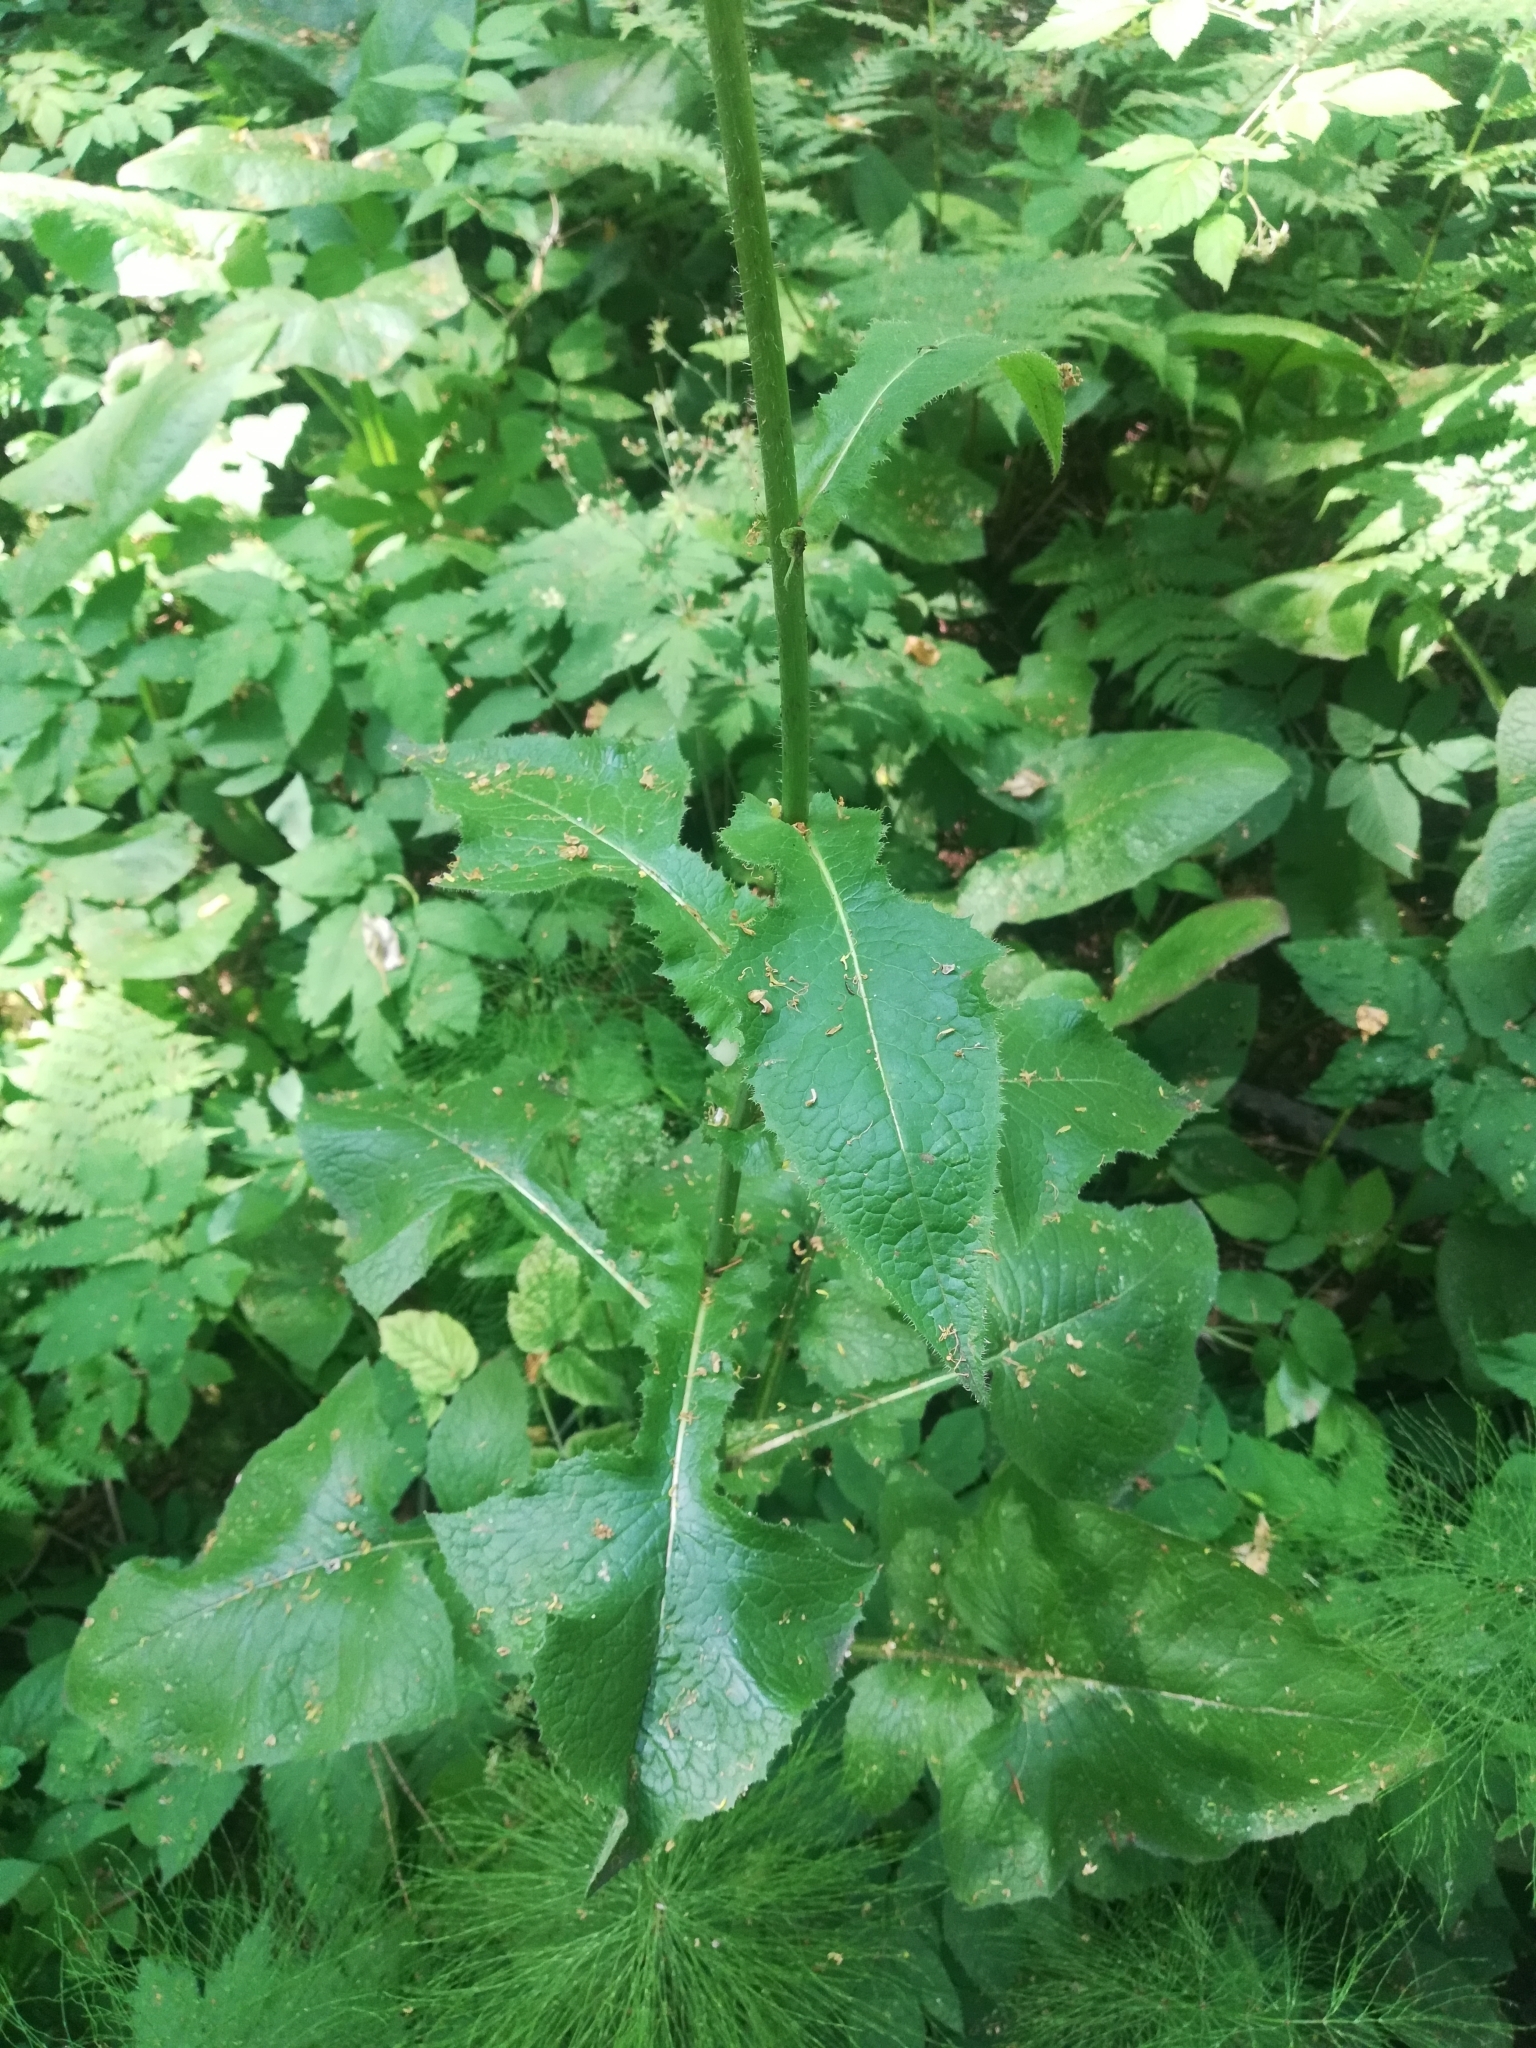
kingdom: Plantae
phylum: Tracheophyta
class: Magnoliopsida
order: Asterales
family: Asteraceae
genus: Lactuca
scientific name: Lactuca macrophylla
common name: Common blue-sow-thistle
